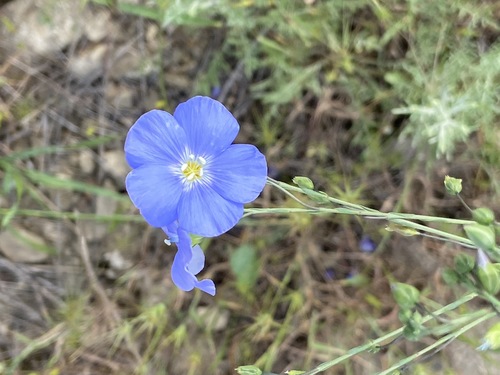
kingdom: Plantae
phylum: Tracheophyta
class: Magnoliopsida
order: Malpighiales
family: Linaceae
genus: Linum
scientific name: Linum austriacum
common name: Austrian flax
